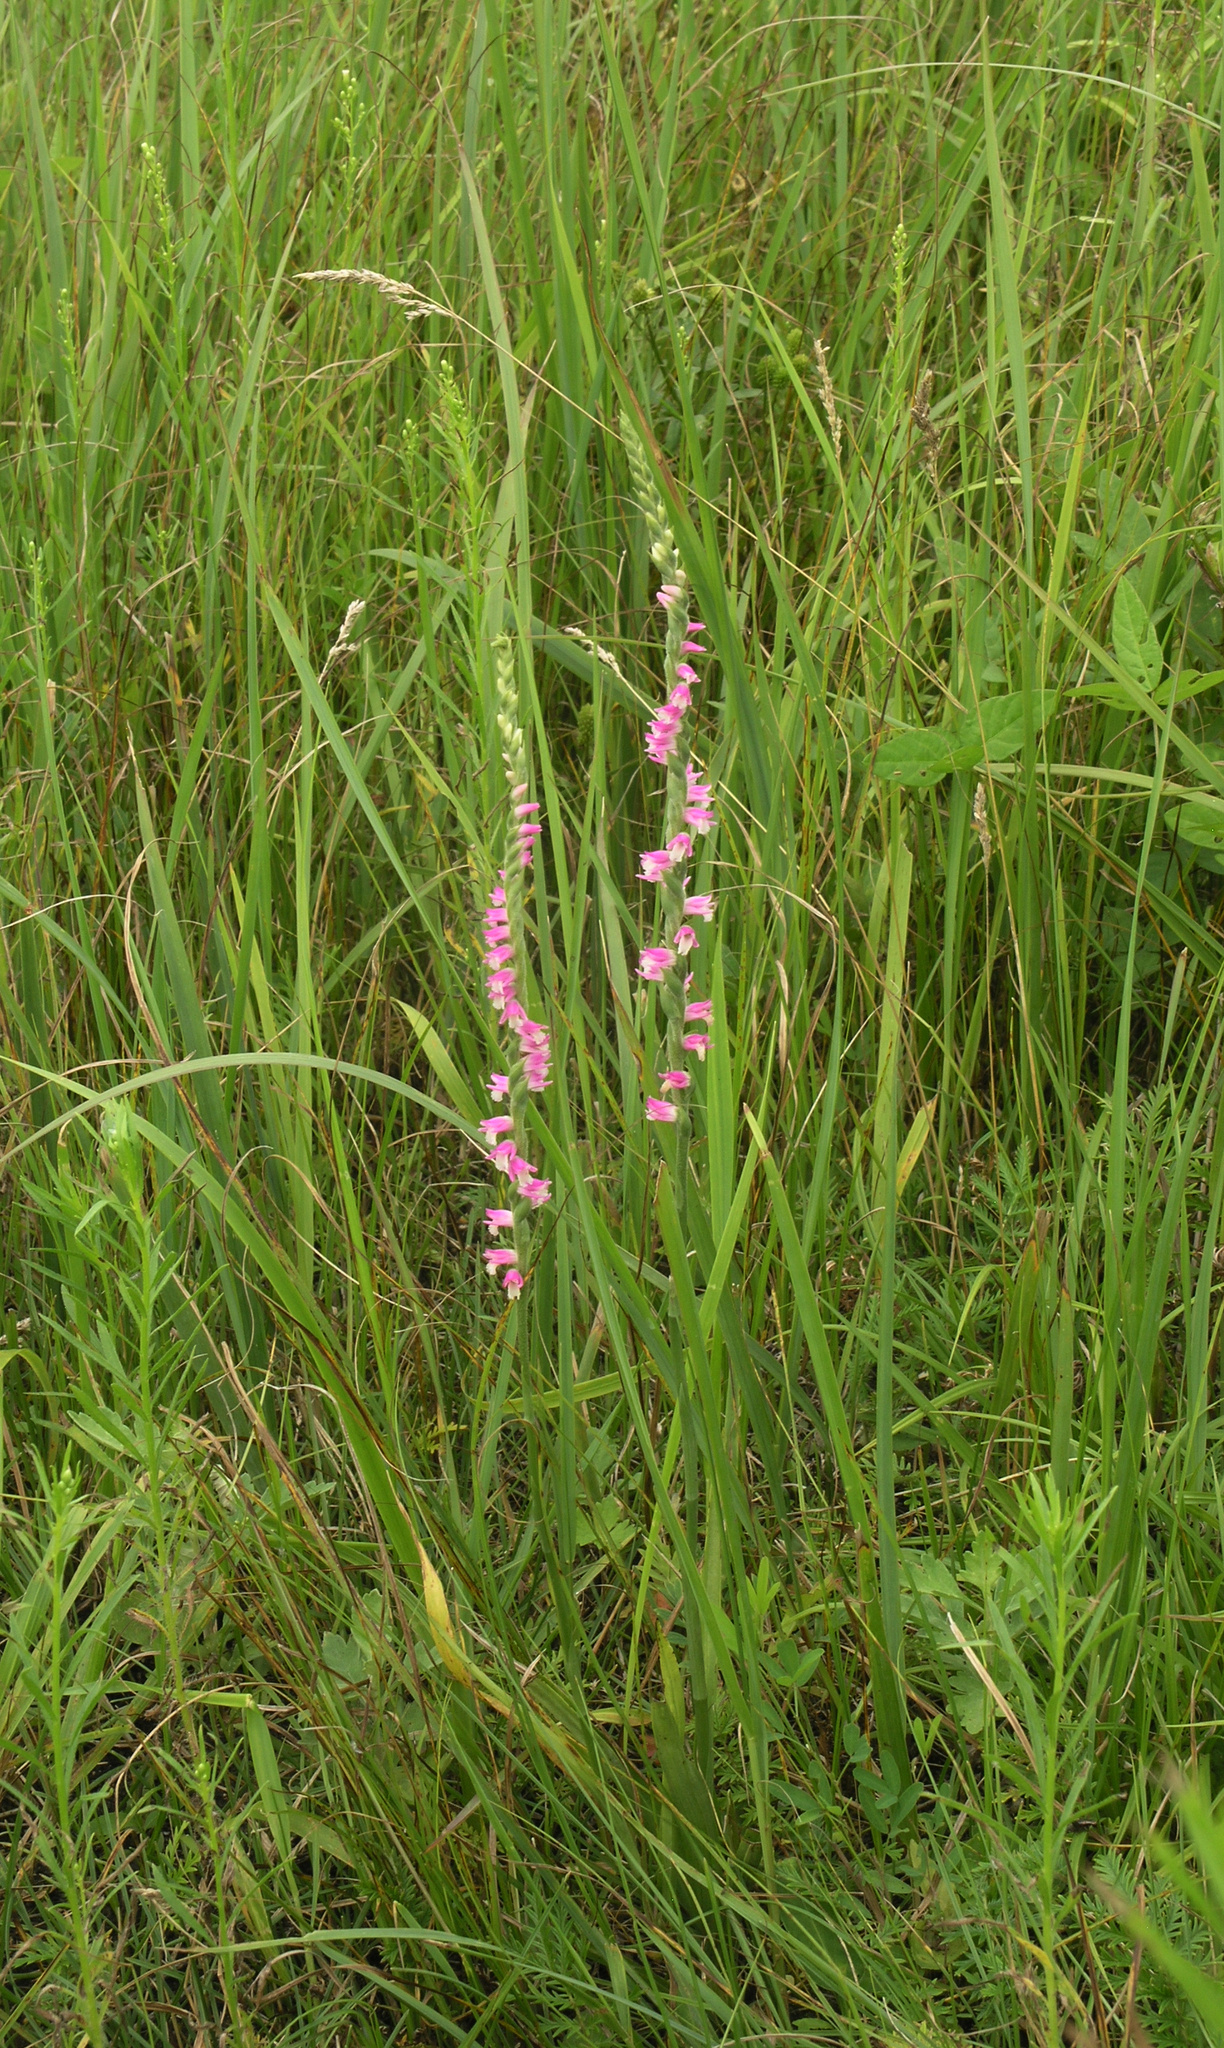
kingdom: Plantae
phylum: Tracheophyta
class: Liliopsida
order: Asparagales
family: Orchidaceae
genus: Spiranthes
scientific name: Spiranthes australis
